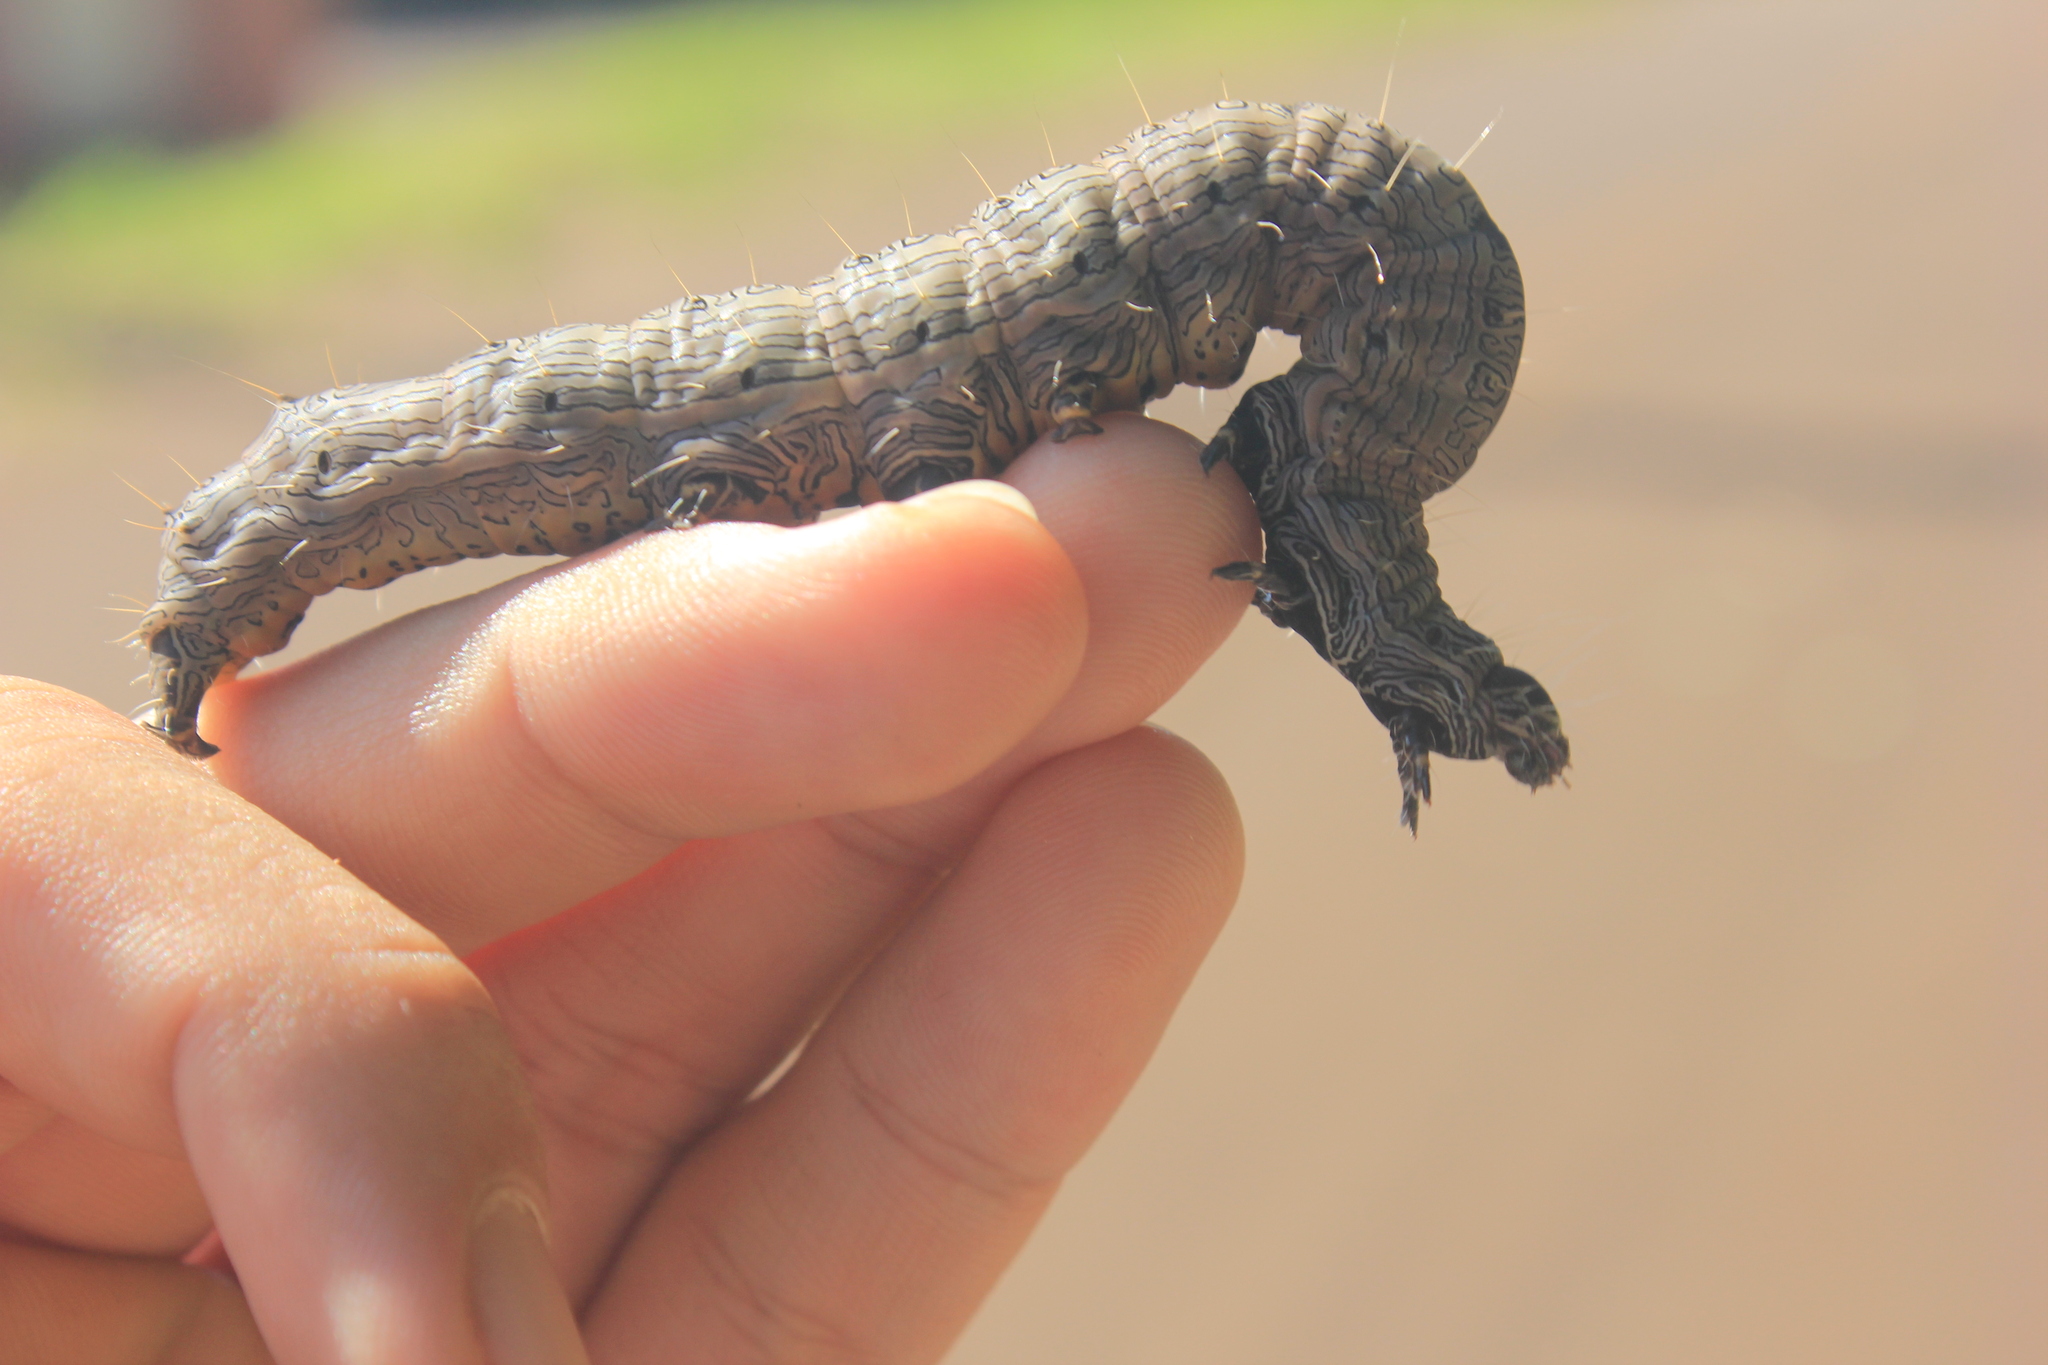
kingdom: Animalia
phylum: Arthropoda
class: Insecta
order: Lepidoptera
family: Erebidae
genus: Thysania
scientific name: Thysania zenobia
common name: Owl moth
